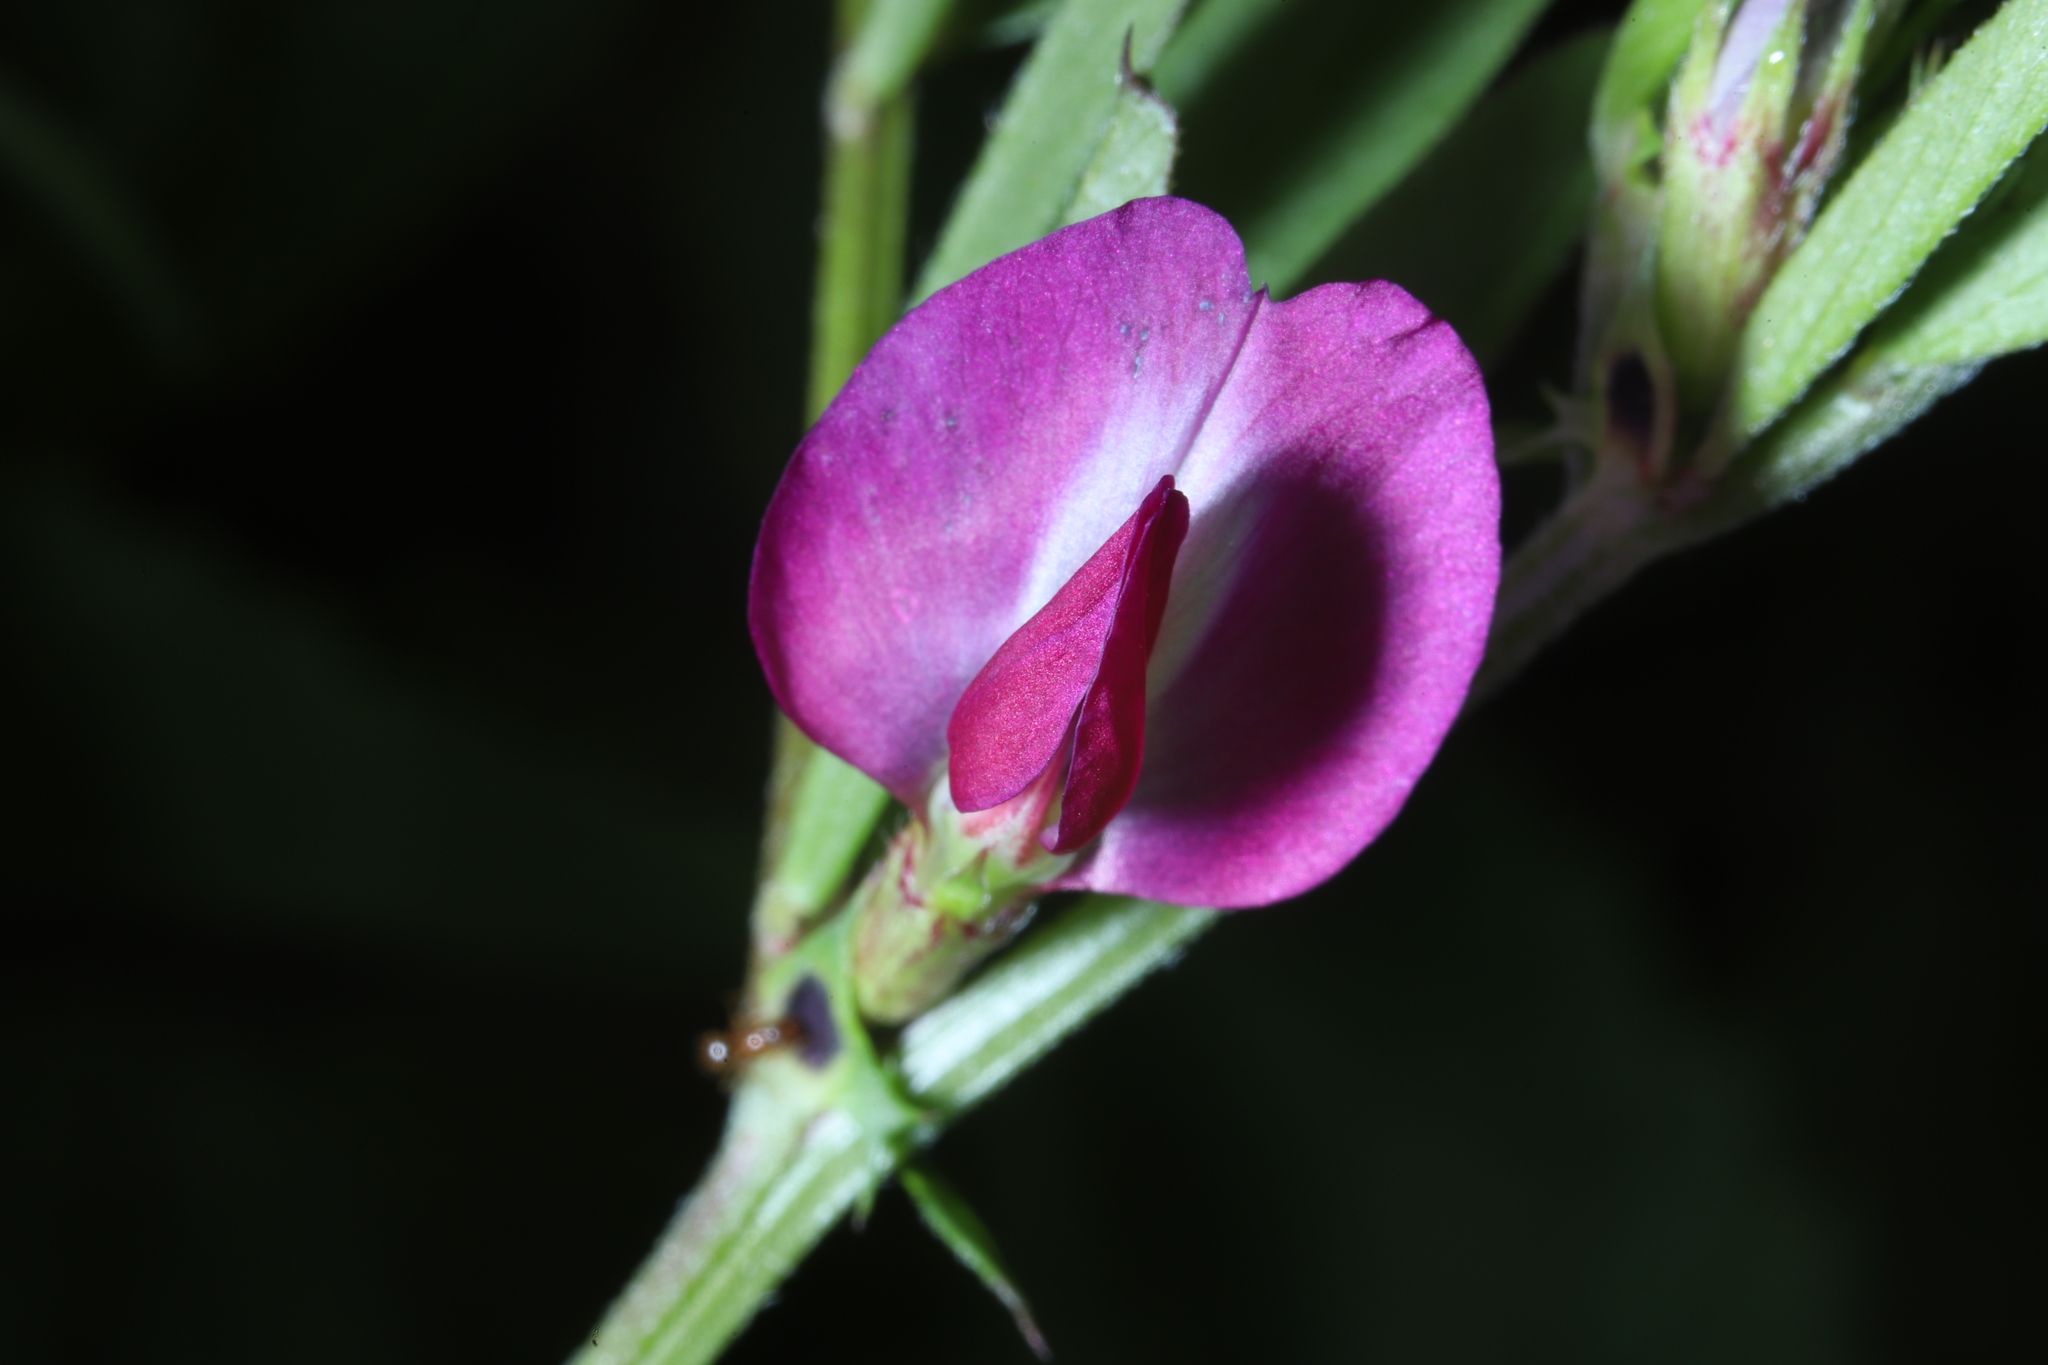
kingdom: Plantae
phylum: Tracheophyta
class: Magnoliopsida
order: Fabales
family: Fabaceae
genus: Vicia
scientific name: Vicia sativa
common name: Garden vetch
